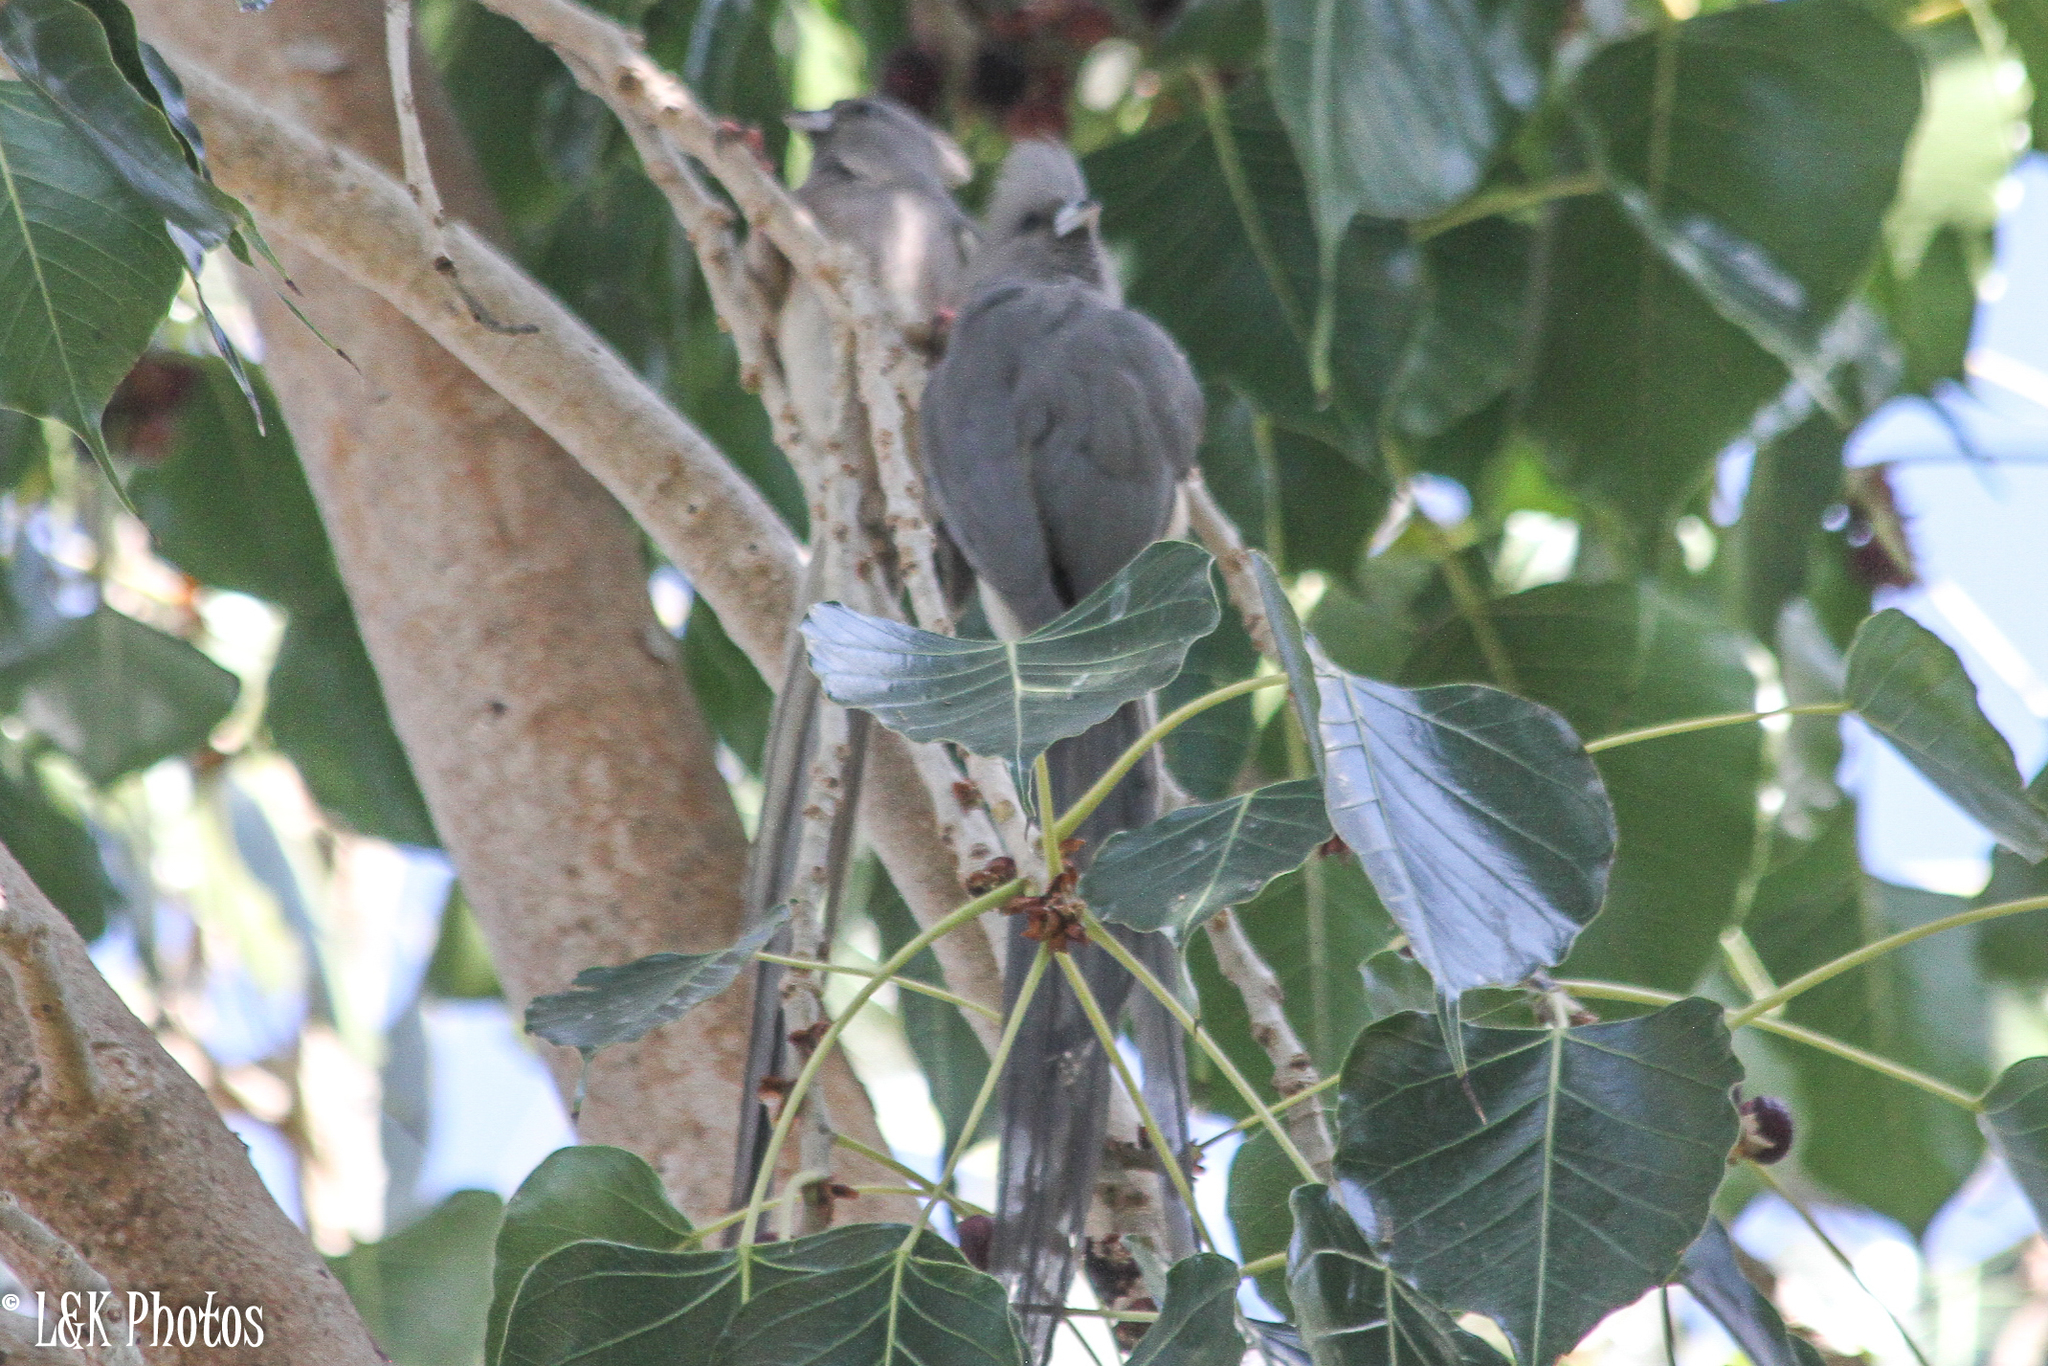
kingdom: Animalia
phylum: Chordata
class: Aves
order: Coliiformes
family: Coliidae
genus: Colius
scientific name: Colius colius
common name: White-backed mousebird
